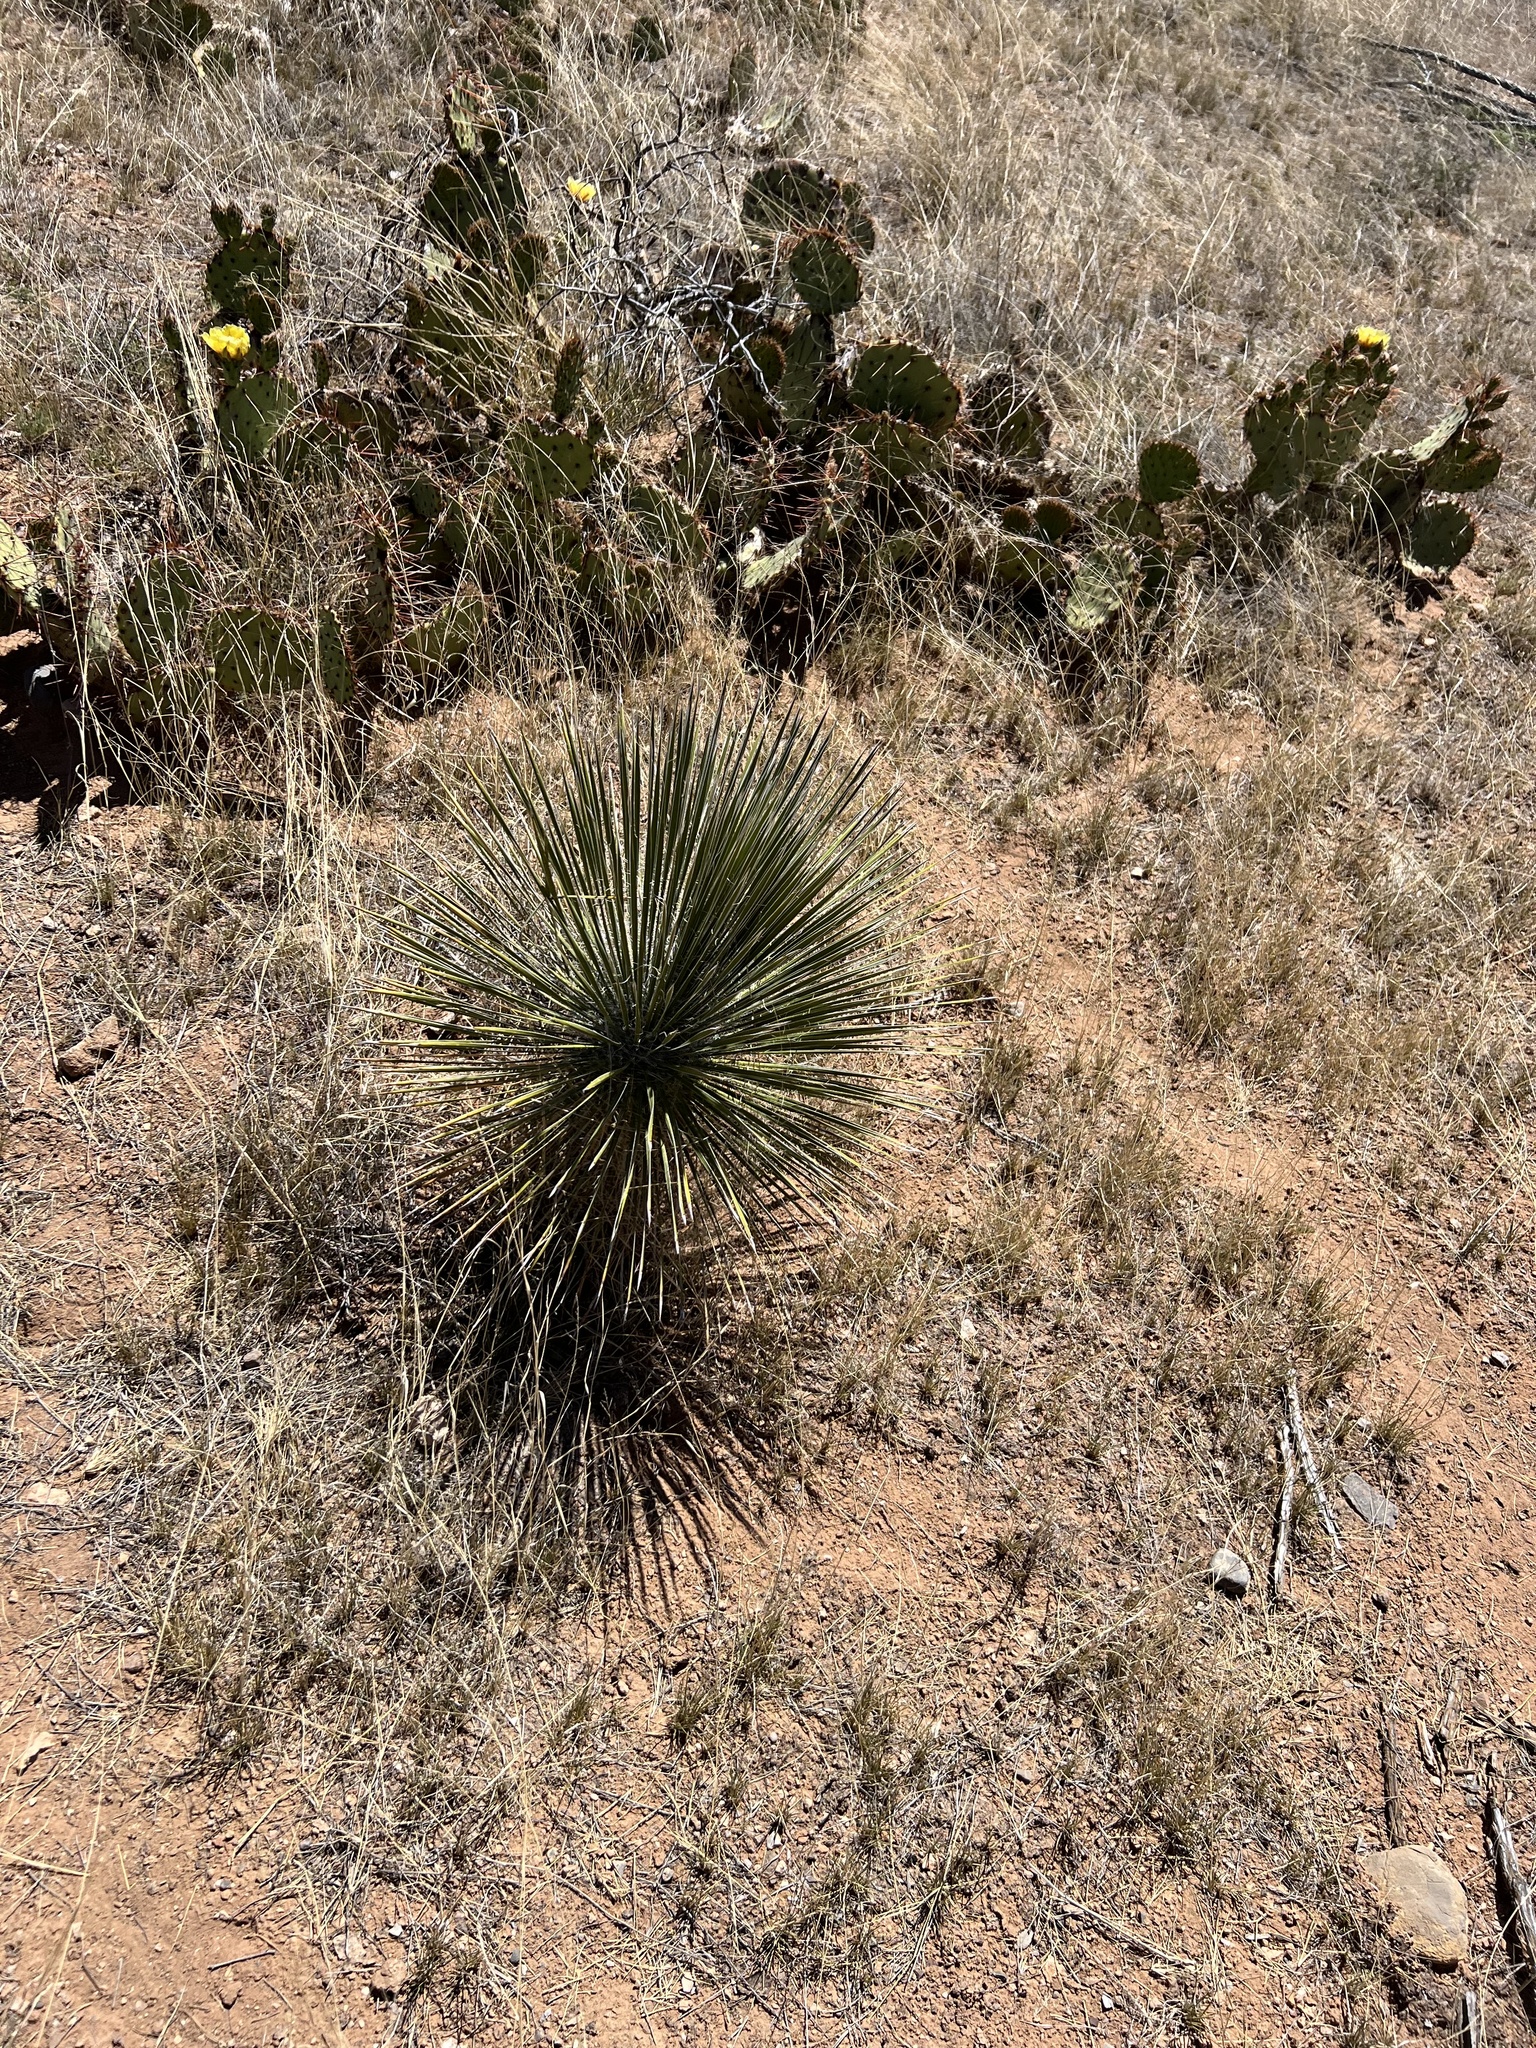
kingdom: Plantae
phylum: Tracheophyta
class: Liliopsida
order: Asparagales
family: Asparagaceae
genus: Yucca
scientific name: Yucca elata
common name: Palmella
